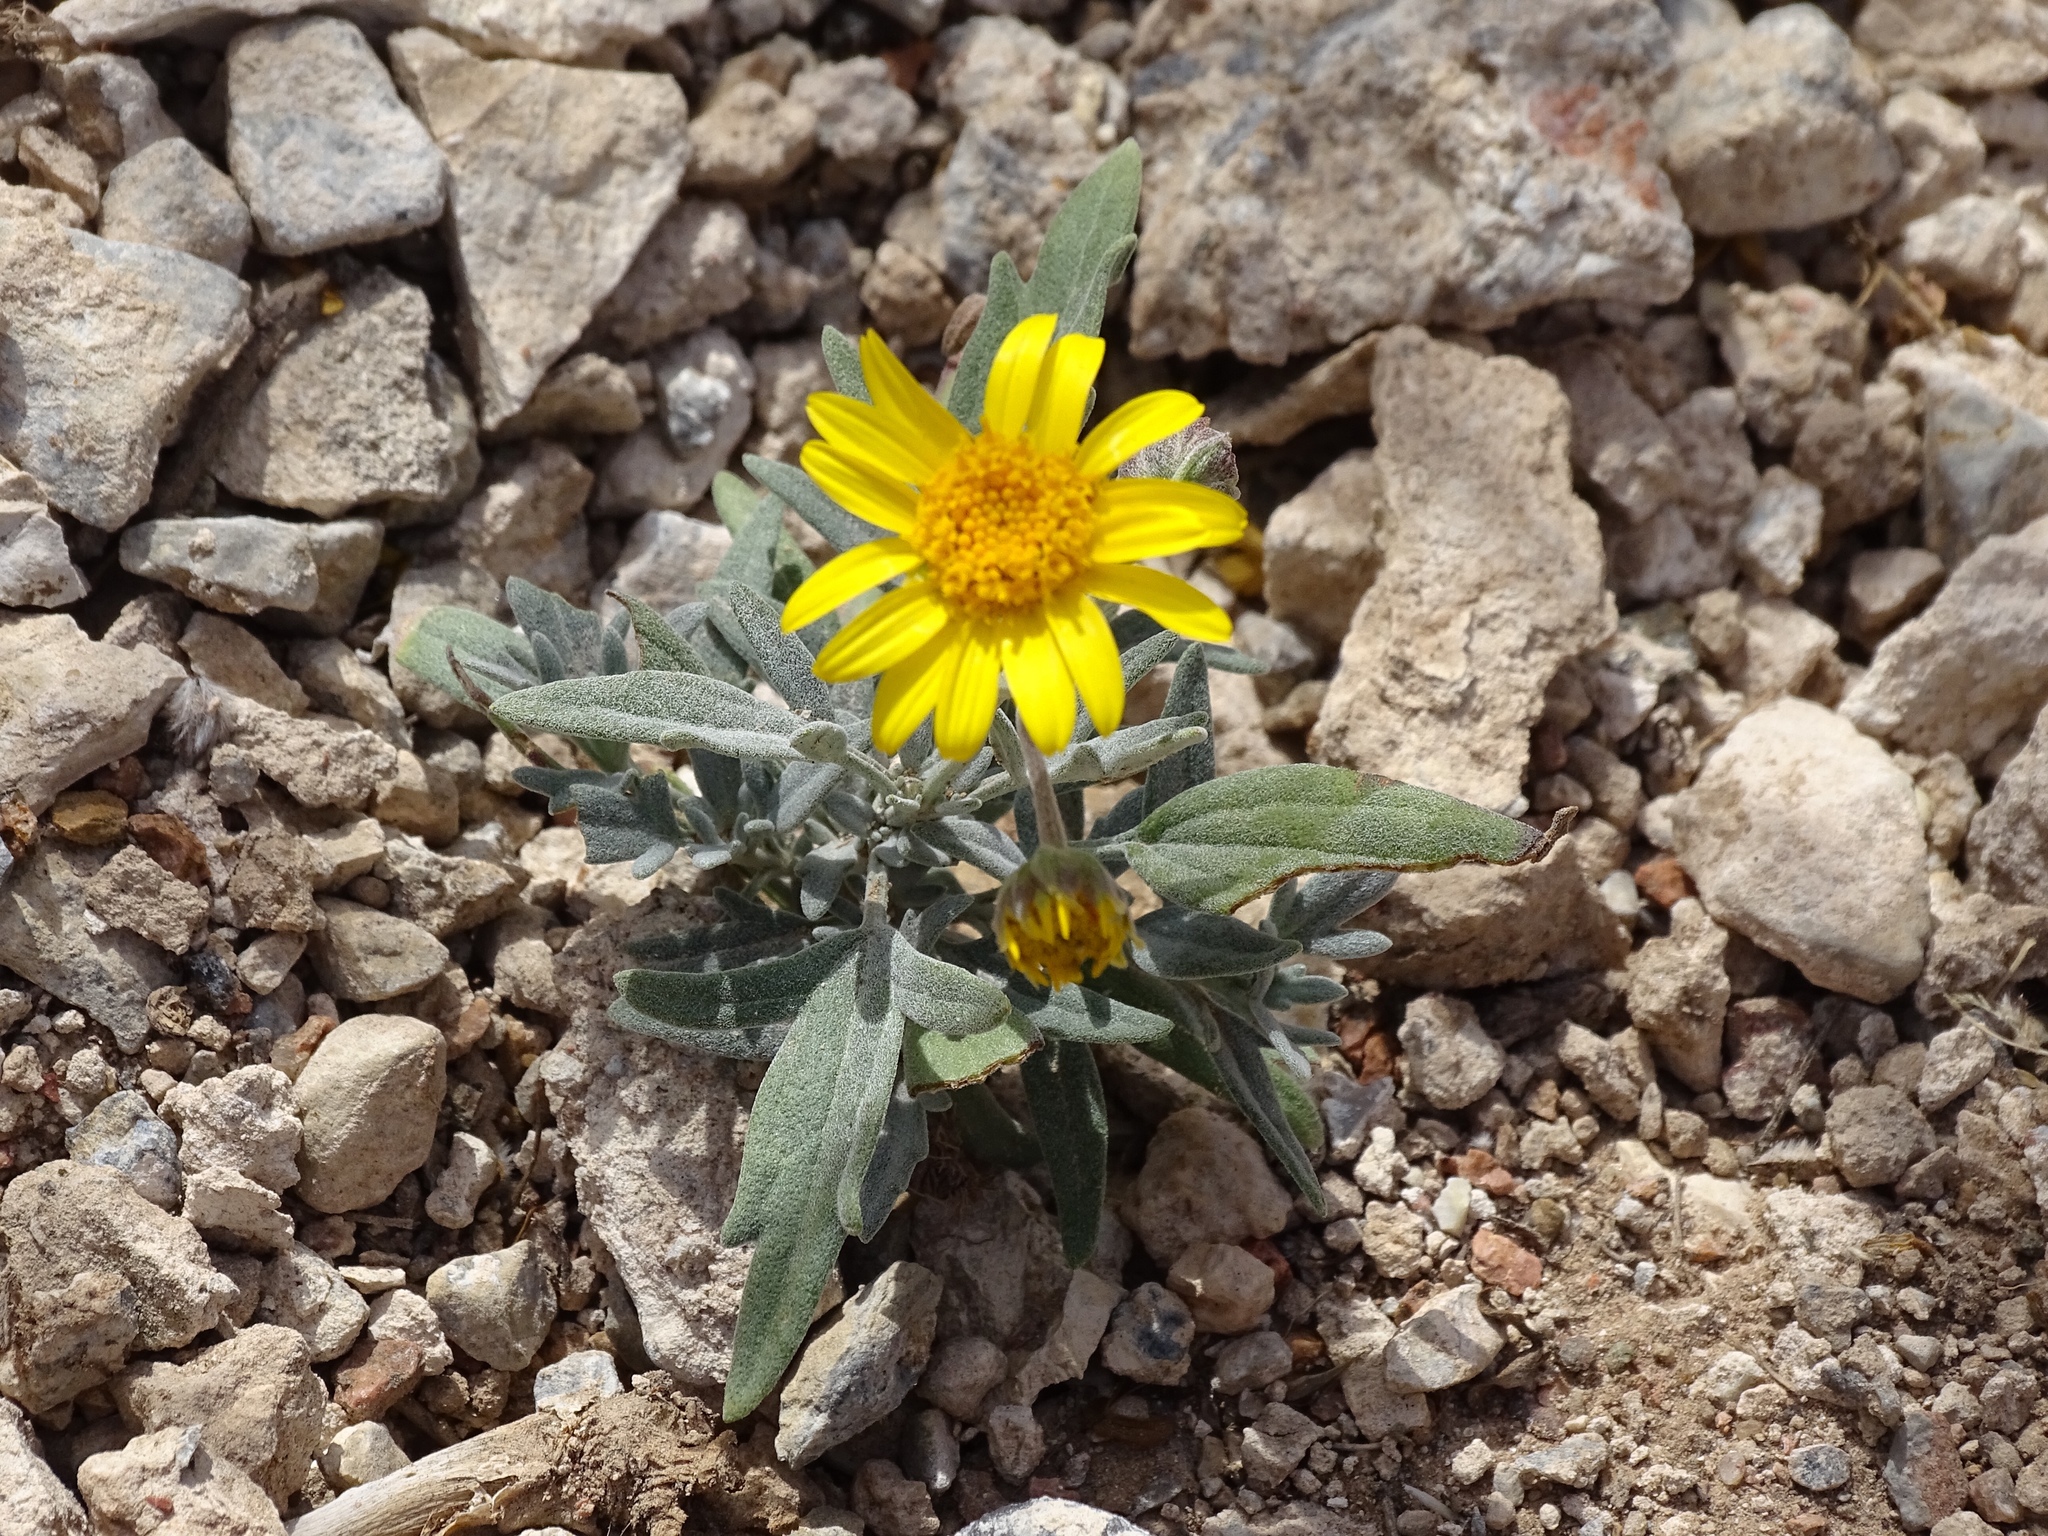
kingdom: Plantae
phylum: Tracheophyta
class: Magnoliopsida
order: Asterales
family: Asteraceae
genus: Picradeniopsis
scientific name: Picradeniopsis absinthifolia
